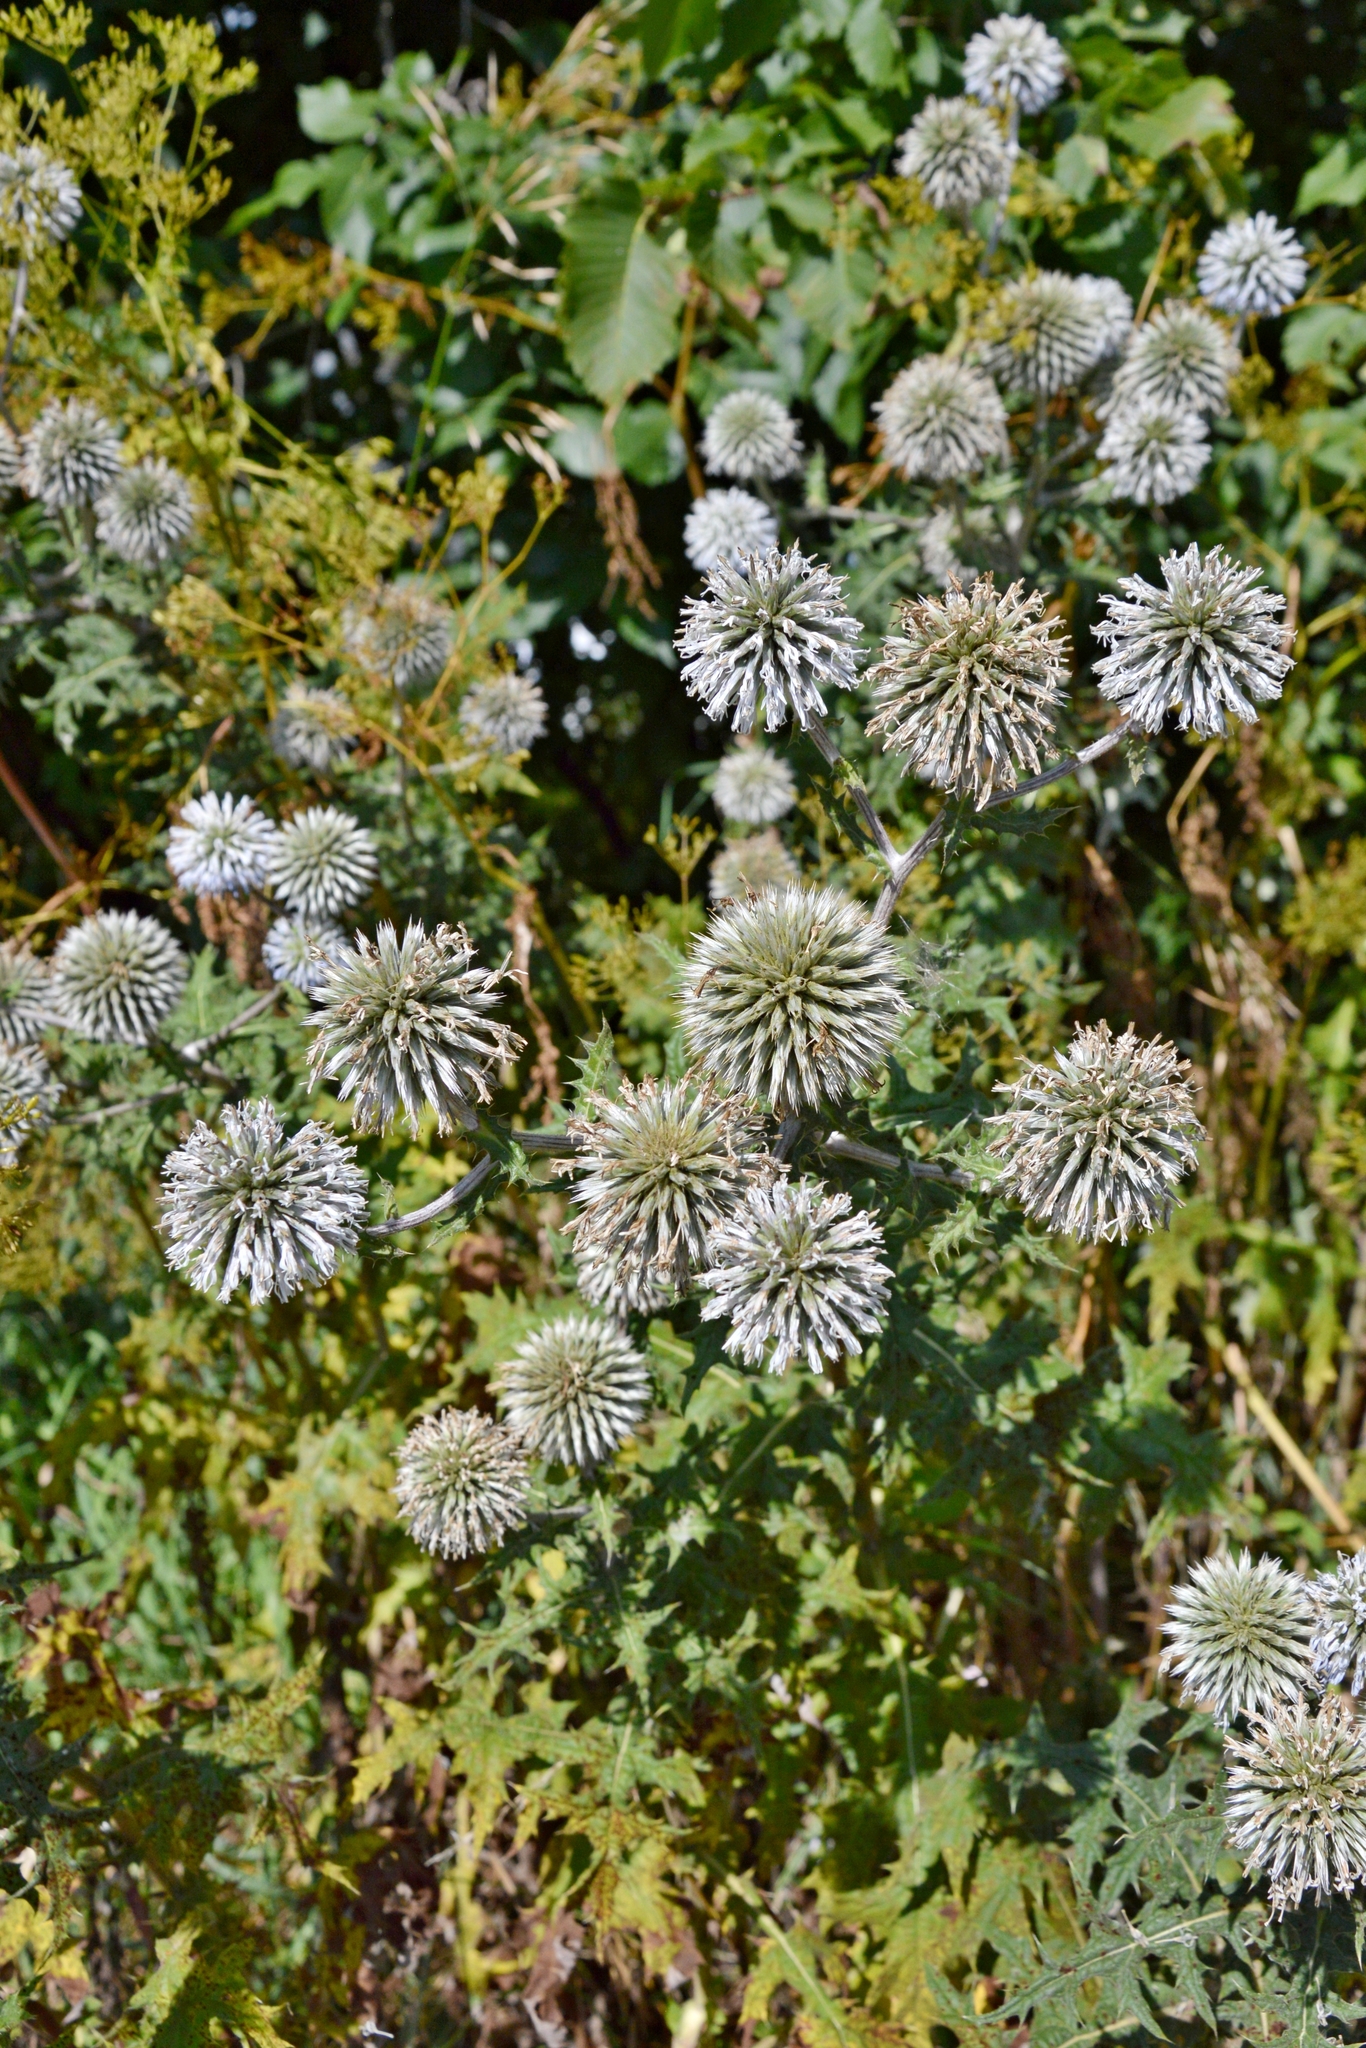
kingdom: Plantae
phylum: Tracheophyta
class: Magnoliopsida
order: Asterales
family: Asteraceae
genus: Echinops
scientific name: Echinops sphaerocephalus
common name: Glandular globe-thistle
